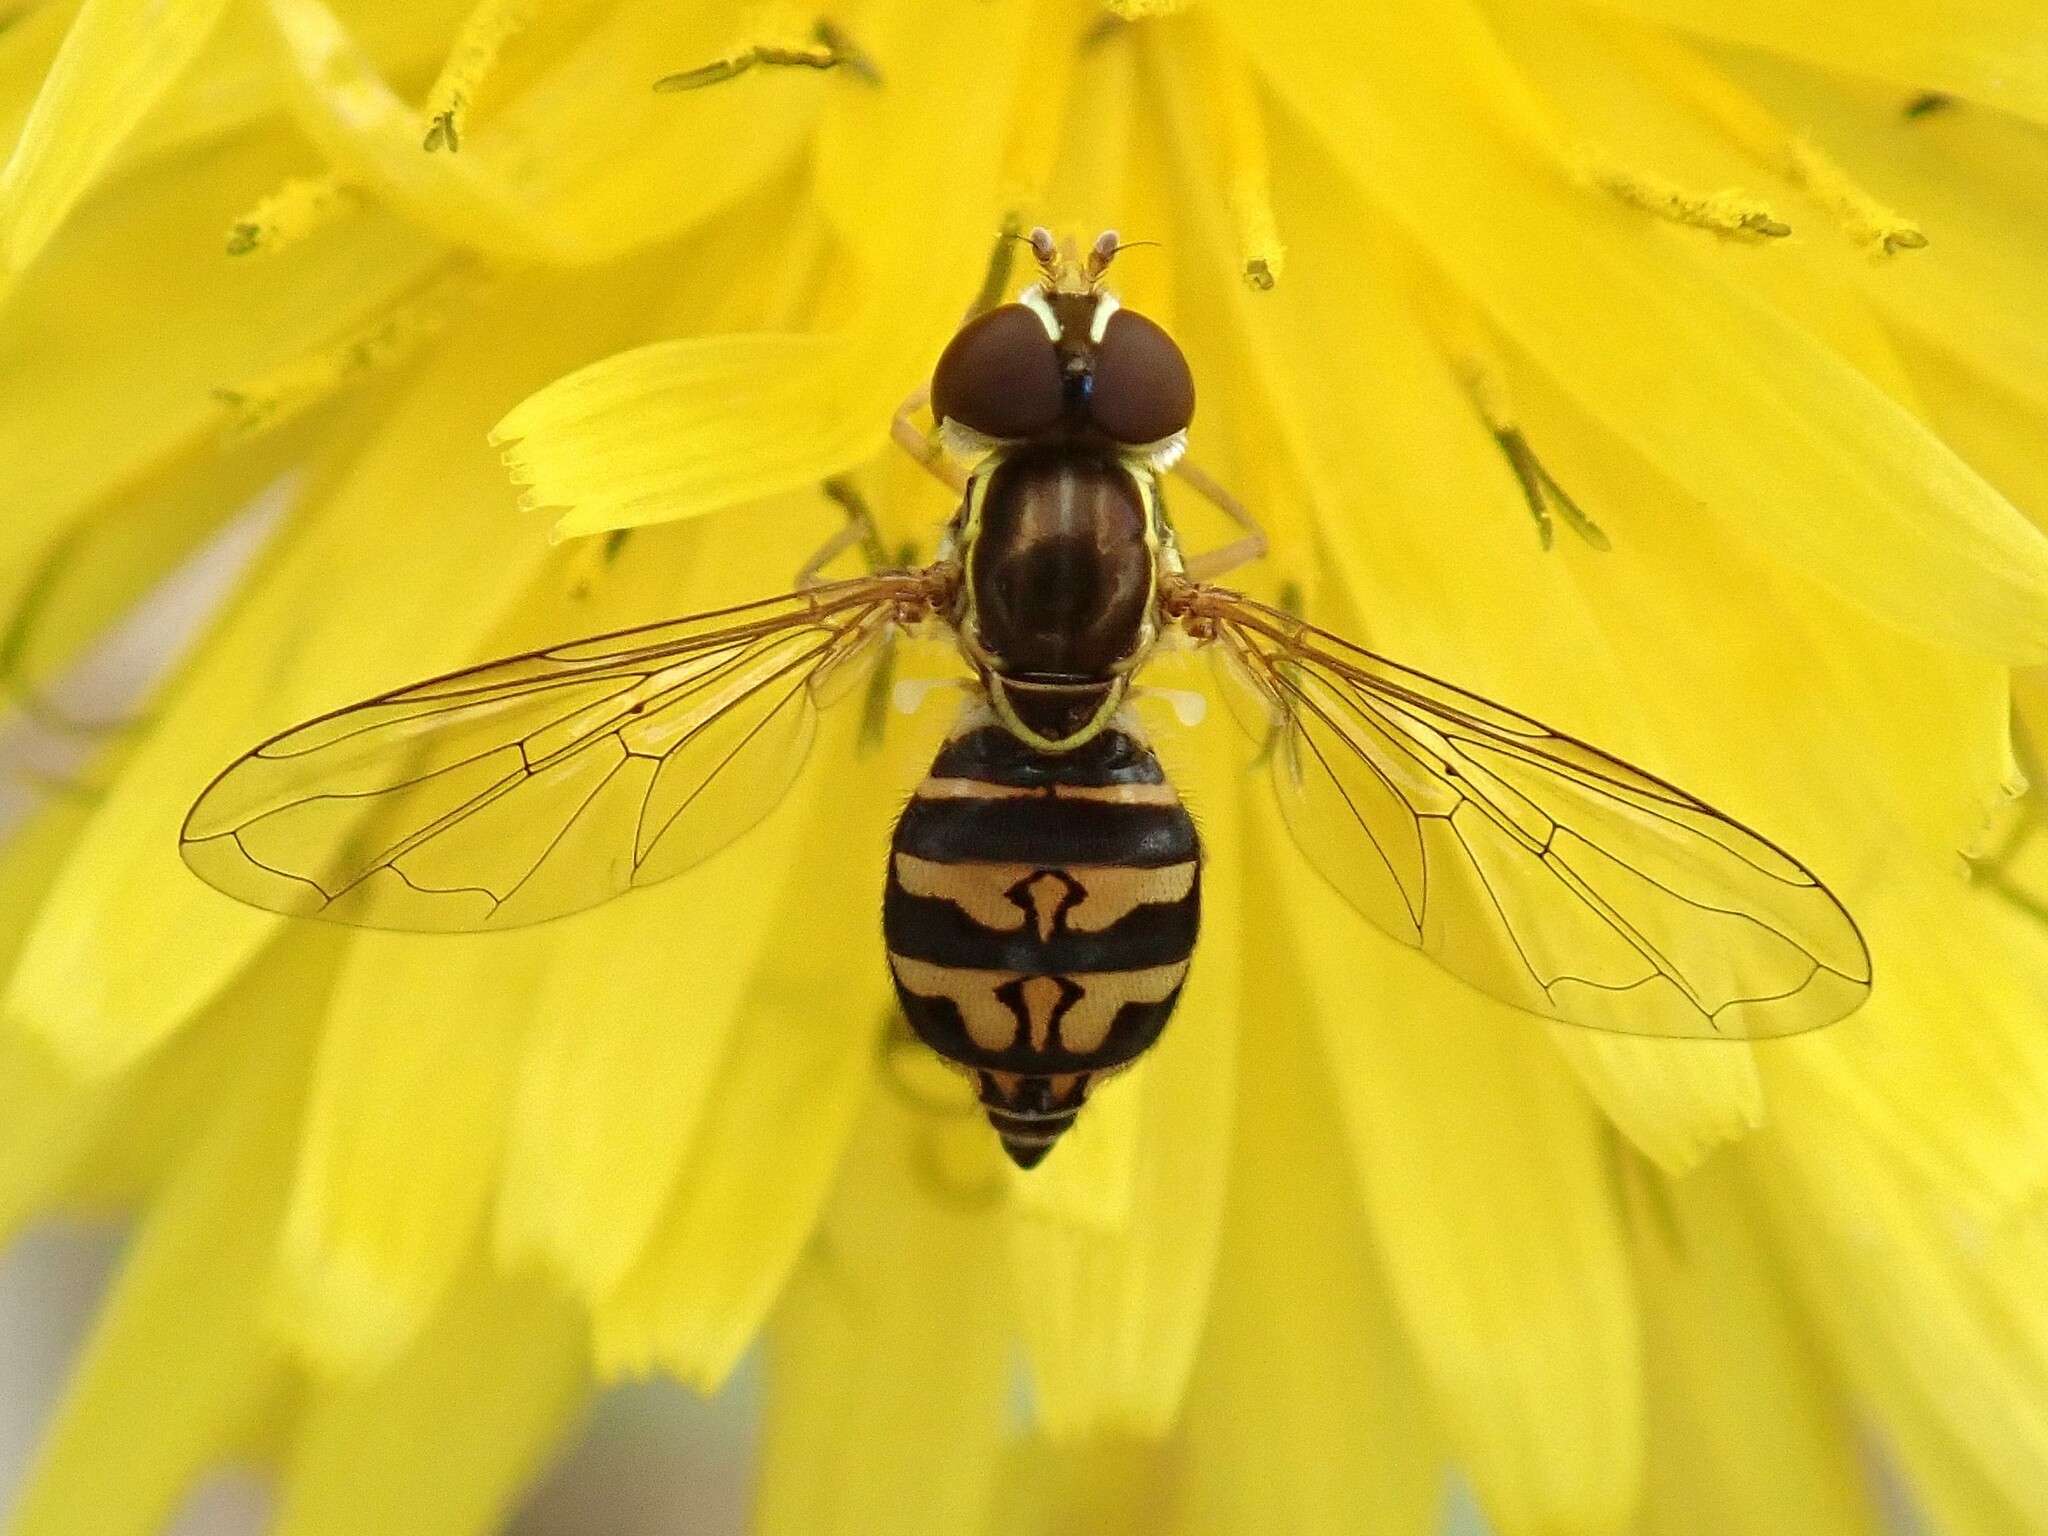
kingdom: Animalia
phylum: Arthropoda
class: Insecta
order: Diptera
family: Syrphidae
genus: Toxomerus
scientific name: Toxomerus occidentalis
